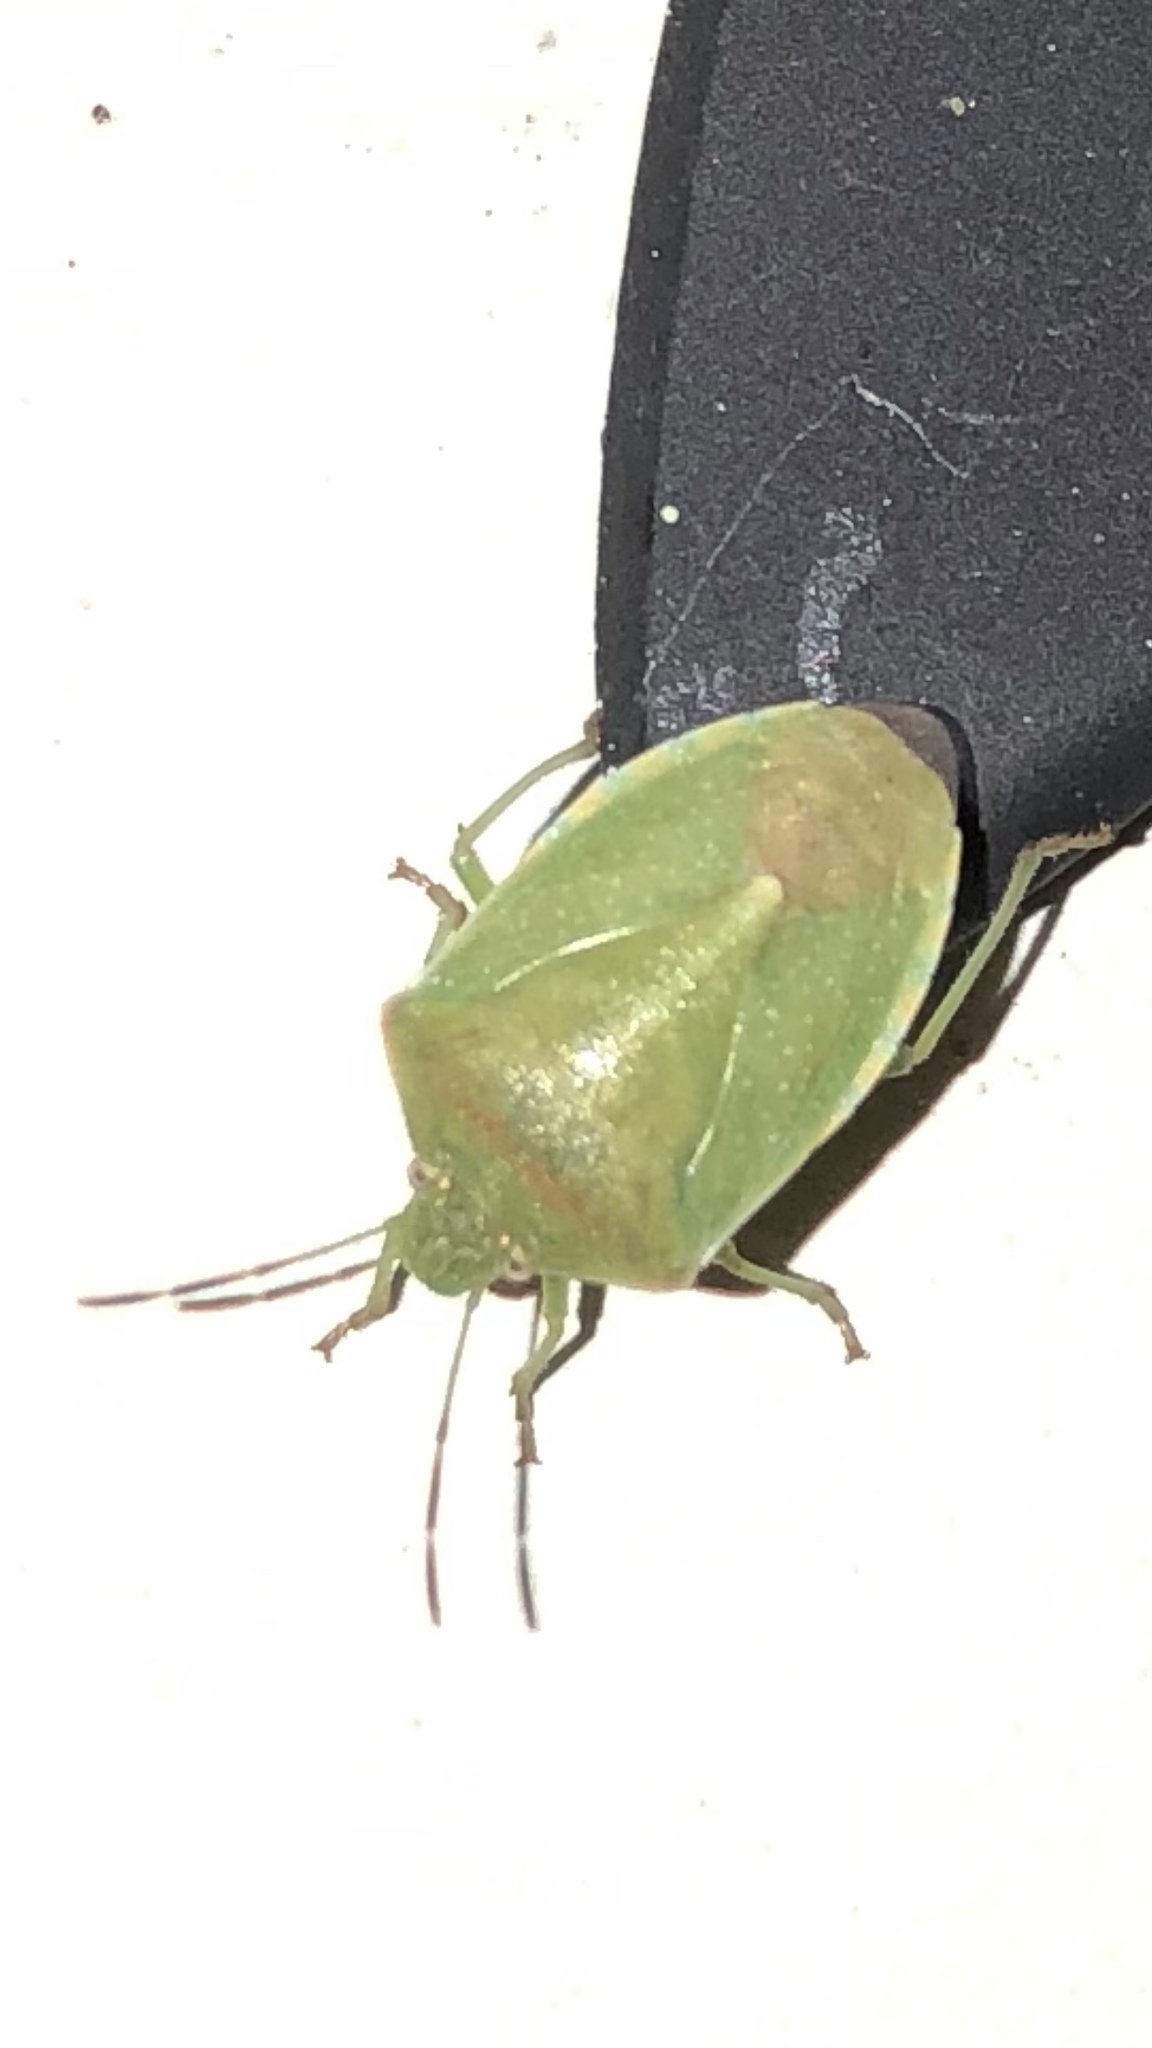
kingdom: Animalia
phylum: Arthropoda
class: Insecta
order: Hemiptera
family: Pentatomidae
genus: Thyanta
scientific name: Thyanta accerra
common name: Stink bug
